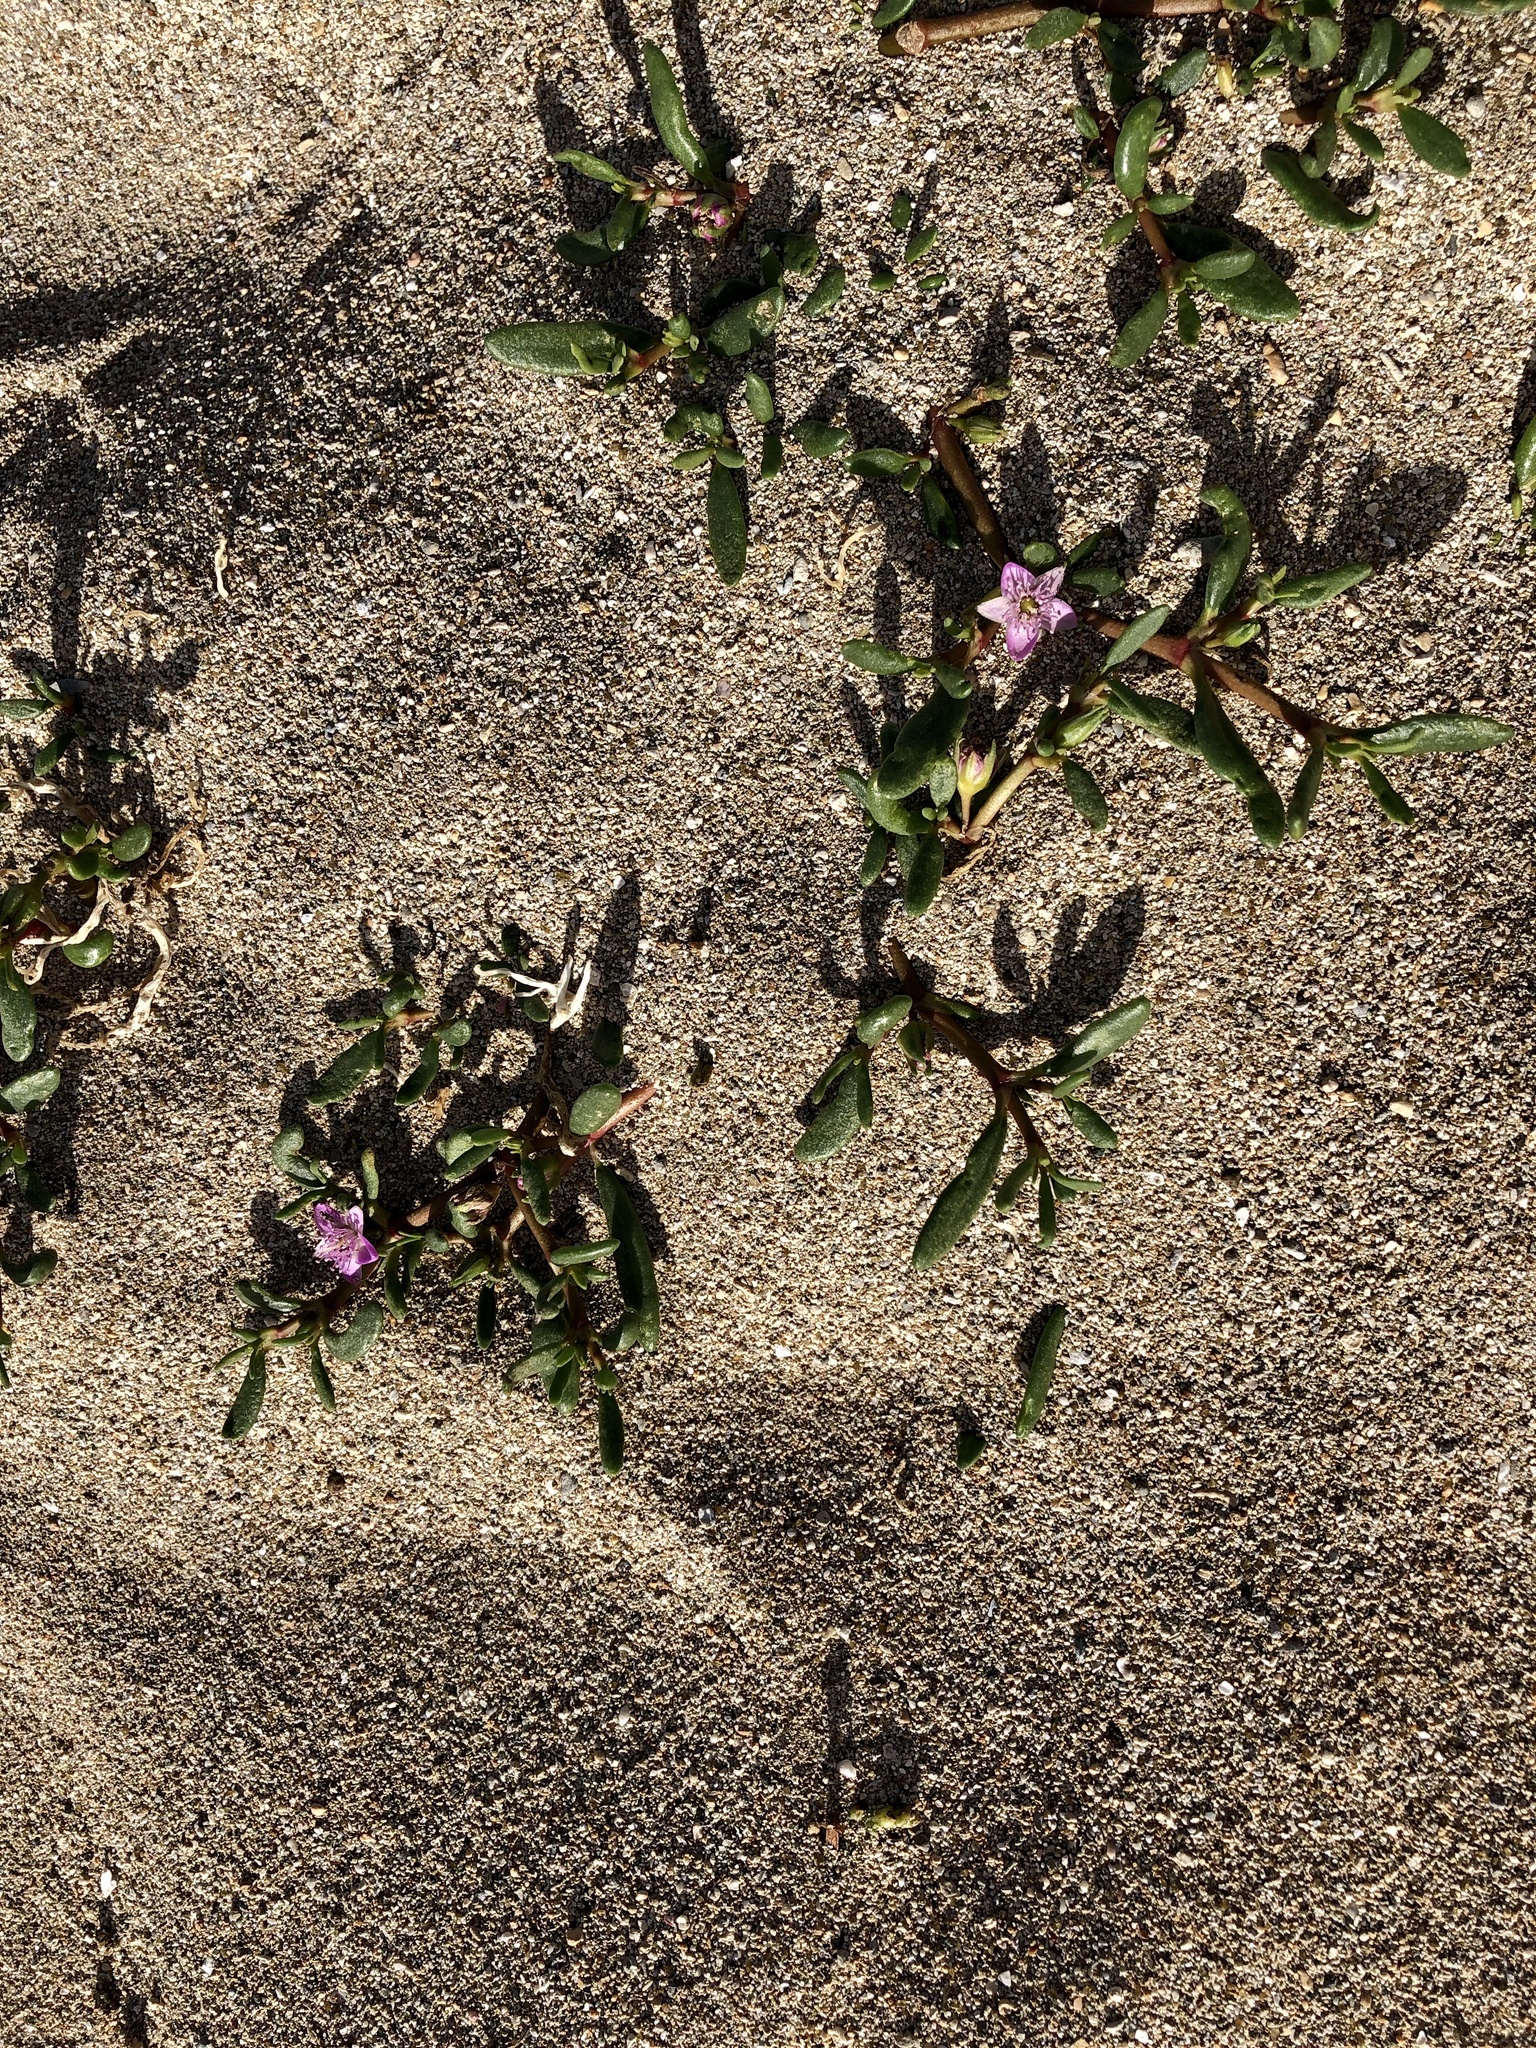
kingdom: Plantae
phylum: Tracheophyta
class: Magnoliopsida
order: Caryophyllales
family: Aizoaceae
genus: Sesuvium
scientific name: Sesuvium portulacastrum
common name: Sea-purslane
